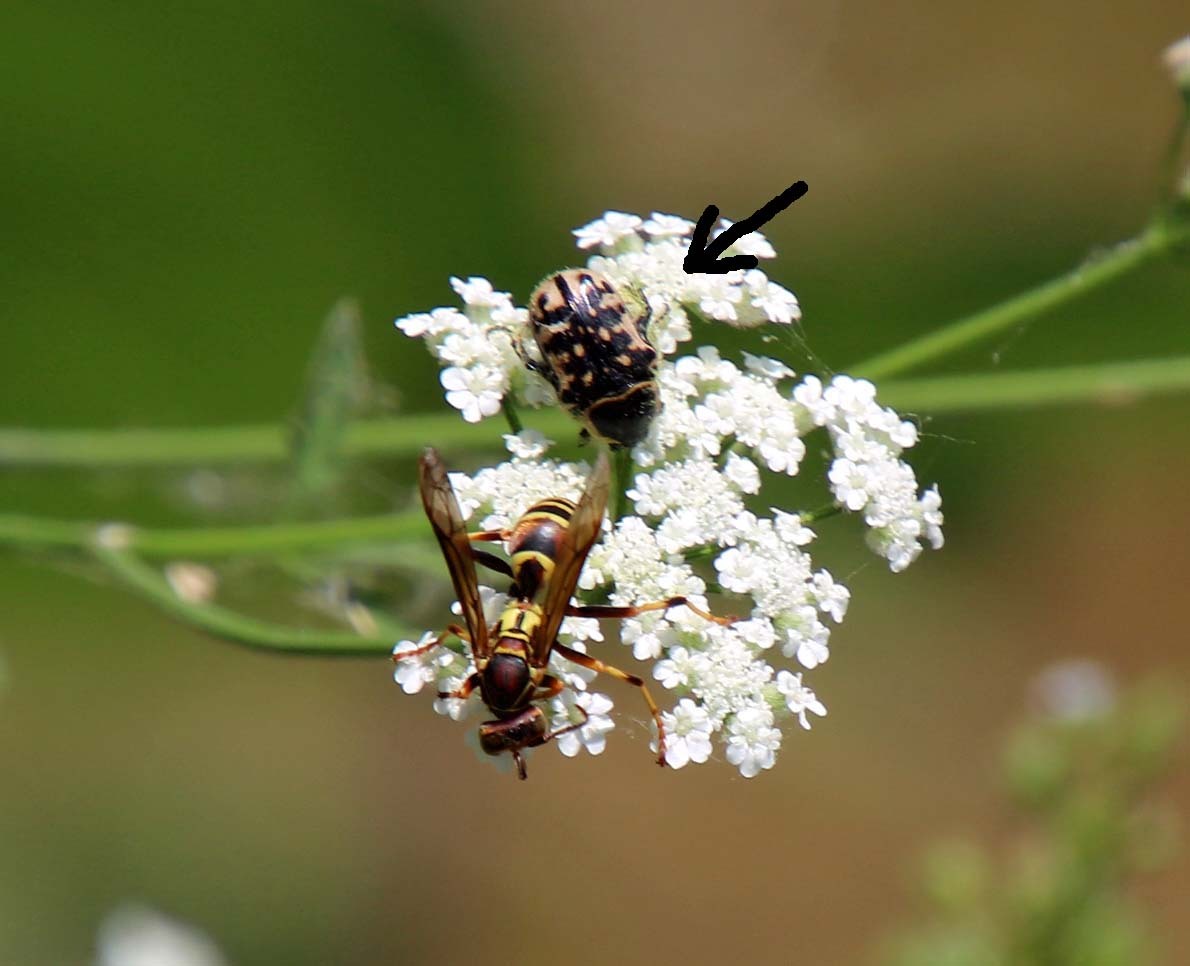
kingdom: Animalia
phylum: Arthropoda
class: Insecta
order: Coleoptera
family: Scarabaeidae
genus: Euphoria
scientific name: Euphoria kernii
